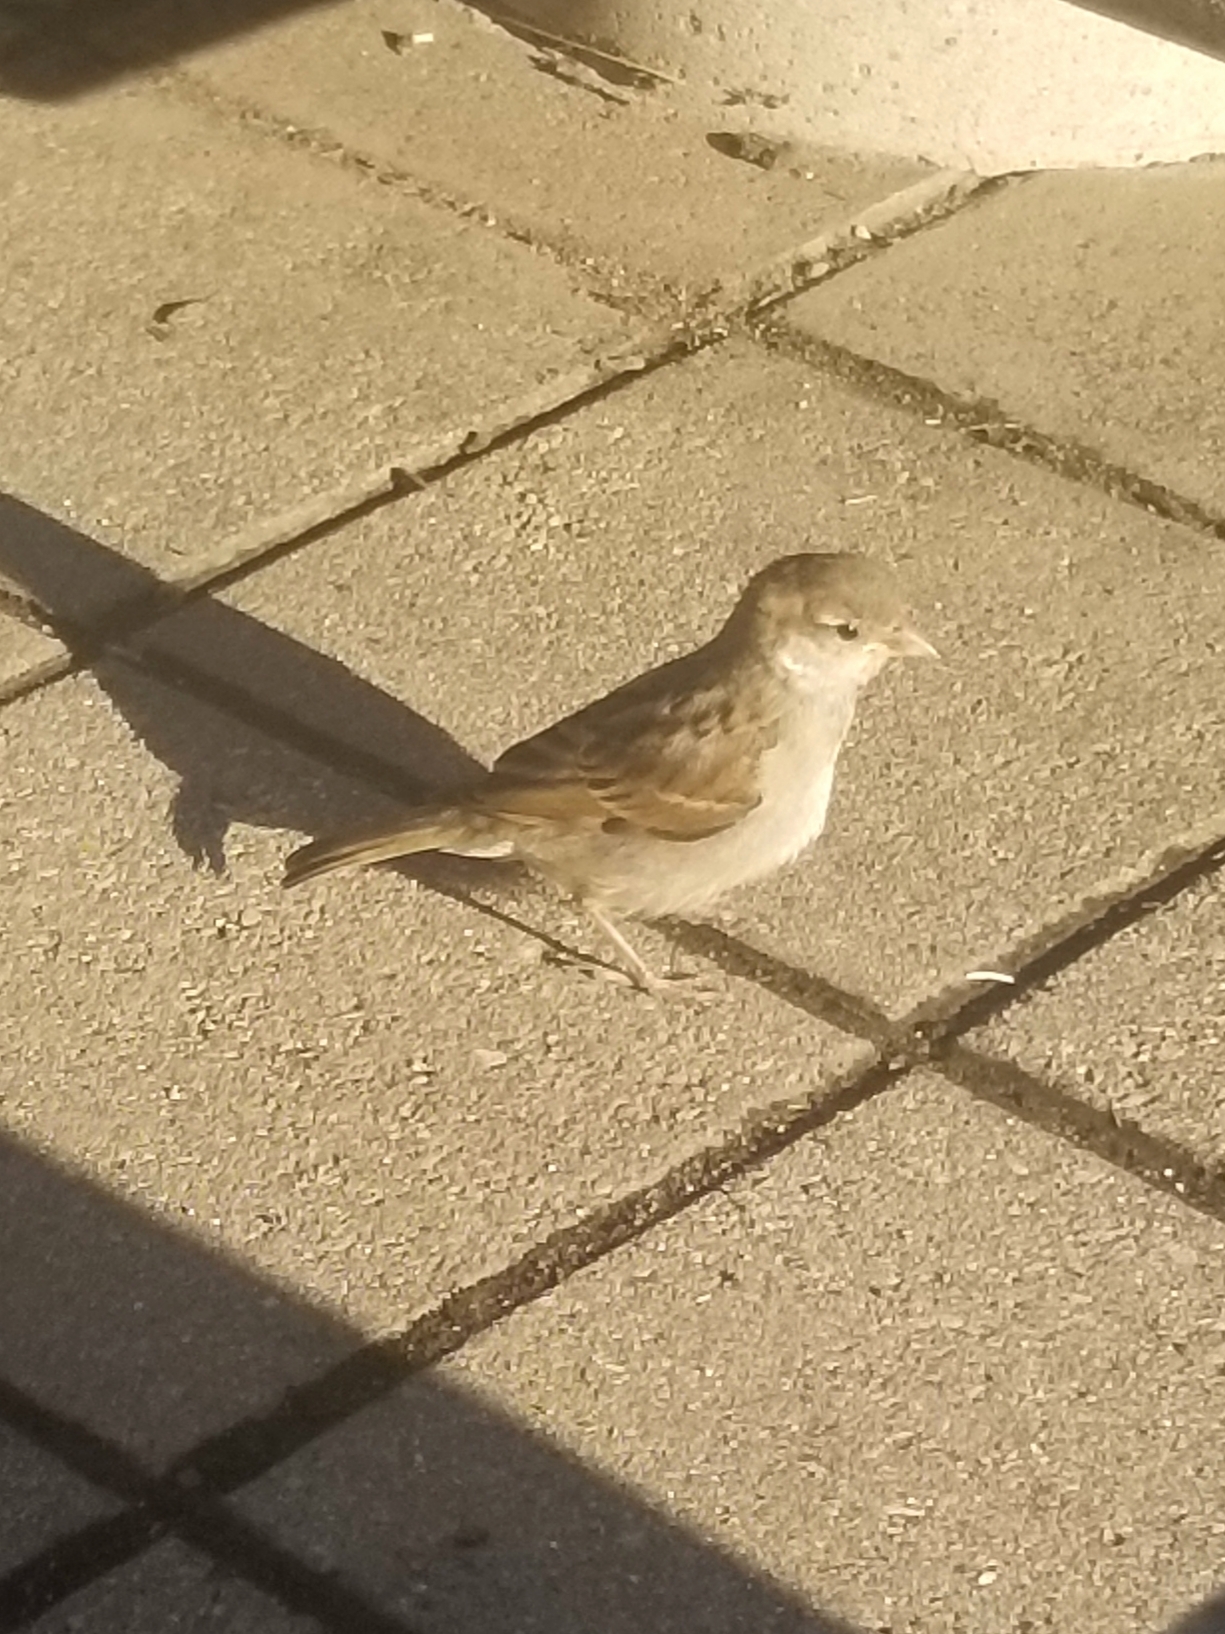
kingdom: Animalia
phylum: Chordata
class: Aves
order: Passeriformes
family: Passeridae
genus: Passer
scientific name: Passer domesticus
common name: House sparrow
